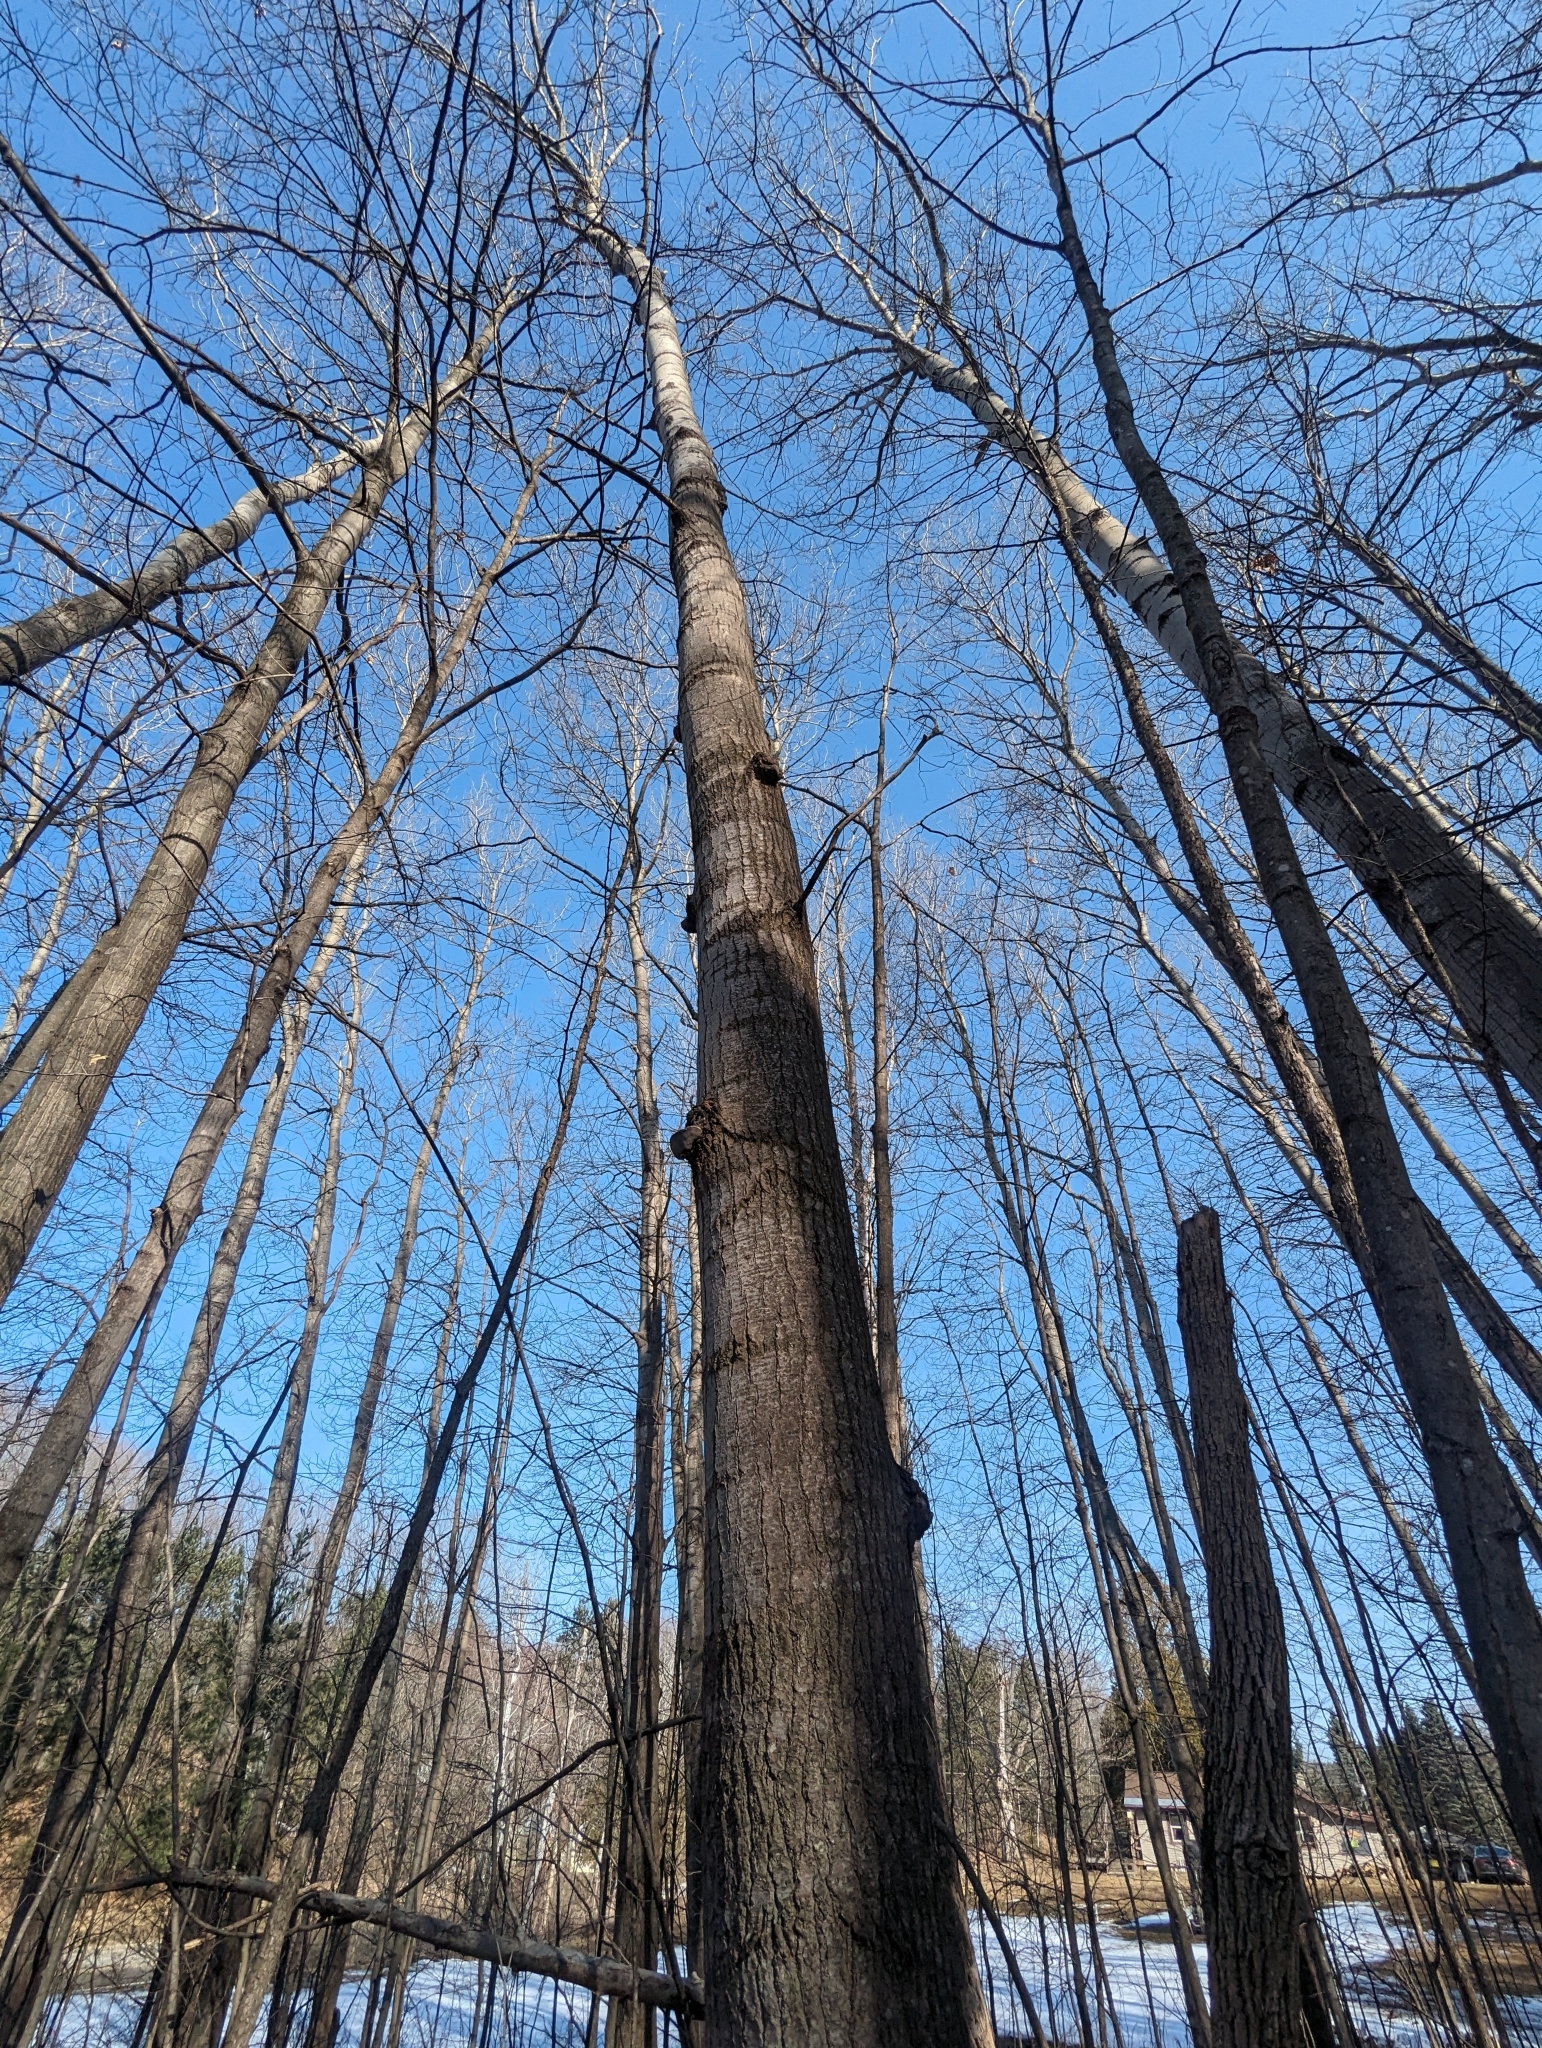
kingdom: Plantae
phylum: Tracheophyta
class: Magnoliopsida
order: Malpighiales
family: Salicaceae
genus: Populus
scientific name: Populus grandidentata
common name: Bigtooth aspen
